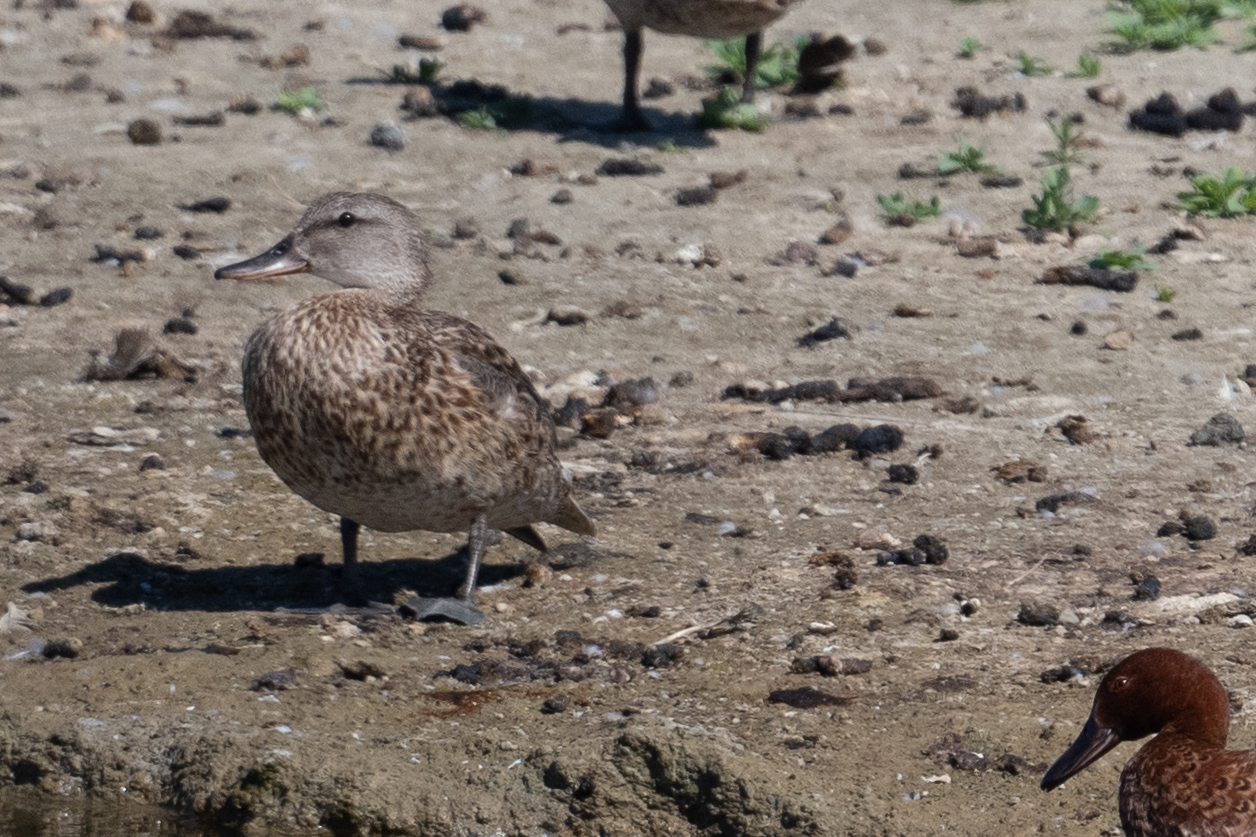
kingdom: Animalia
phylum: Chordata
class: Aves
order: Anseriformes
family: Anatidae
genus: Spatula
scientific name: Spatula cyanoptera
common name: Cinnamon teal
